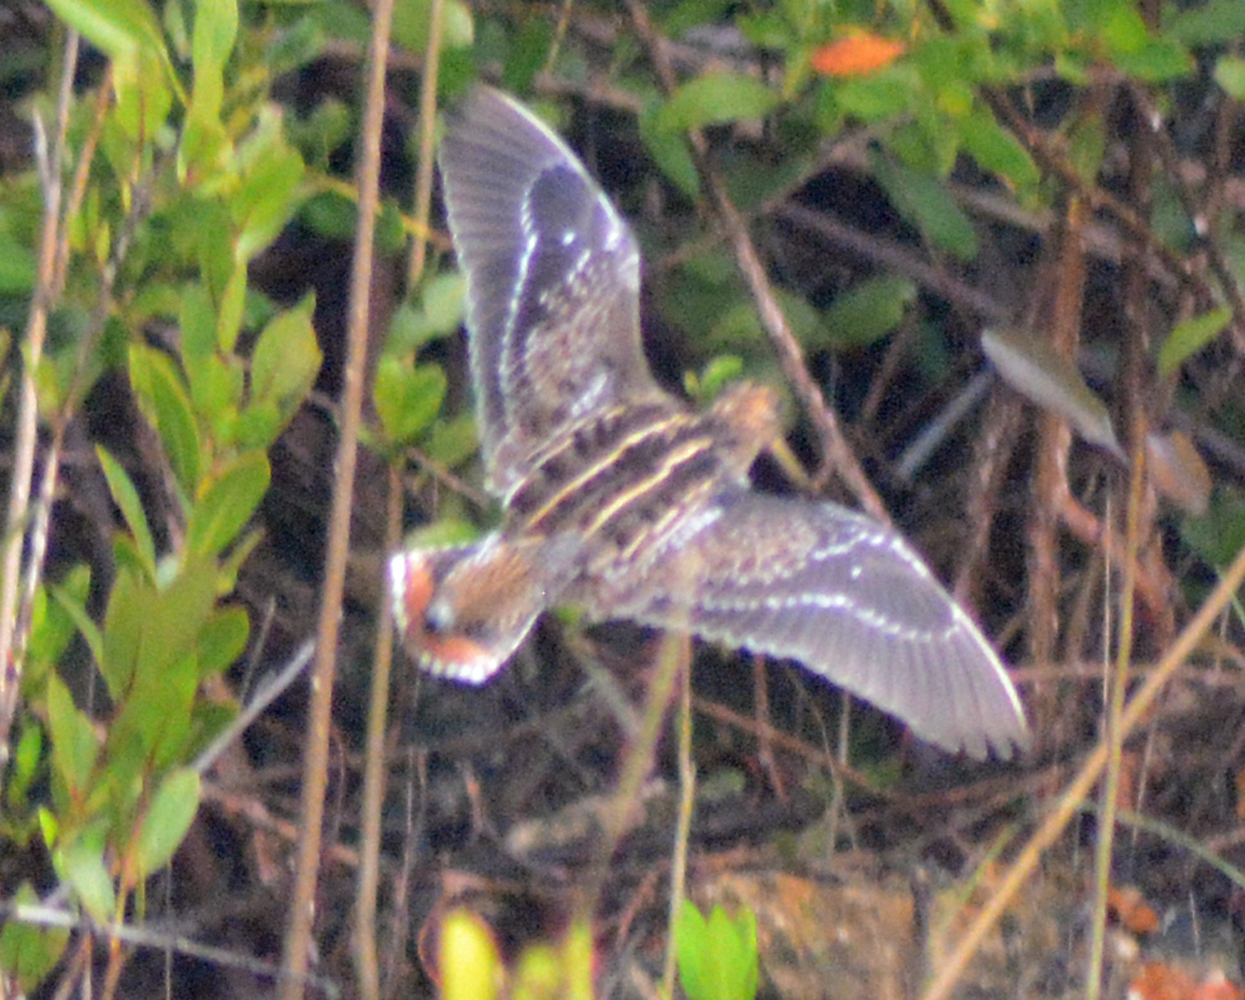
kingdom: Animalia
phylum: Chordata
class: Aves
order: Charadriiformes
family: Scolopacidae
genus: Gallinago
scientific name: Gallinago delicata
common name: Wilson's snipe
